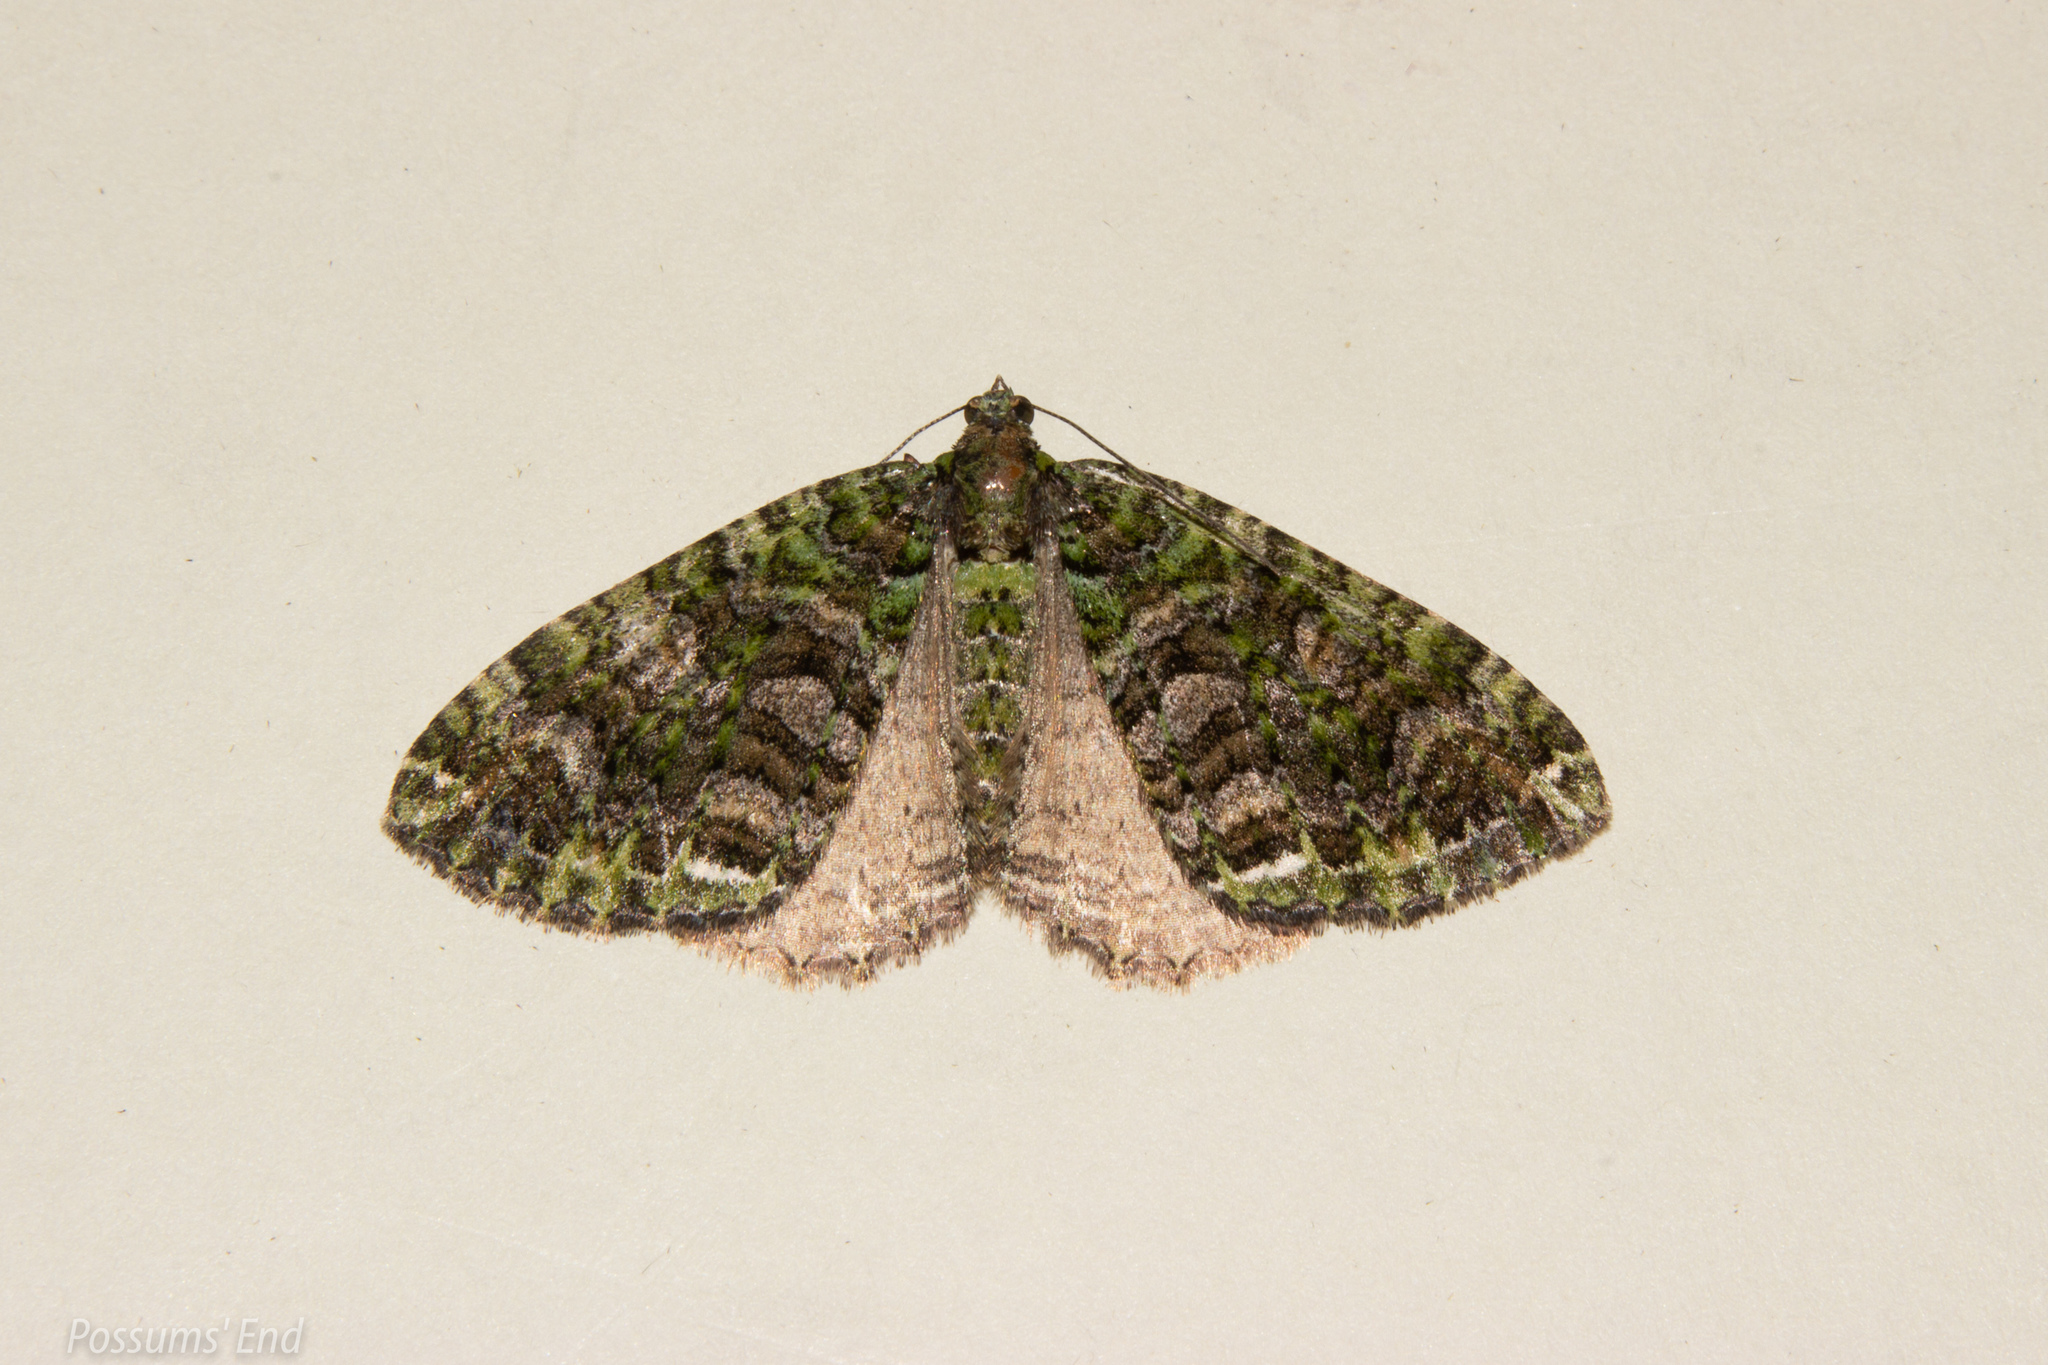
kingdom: Animalia
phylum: Arthropoda
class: Insecta
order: Lepidoptera
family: Geometridae
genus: Austrocidaria
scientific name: Austrocidaria similata
